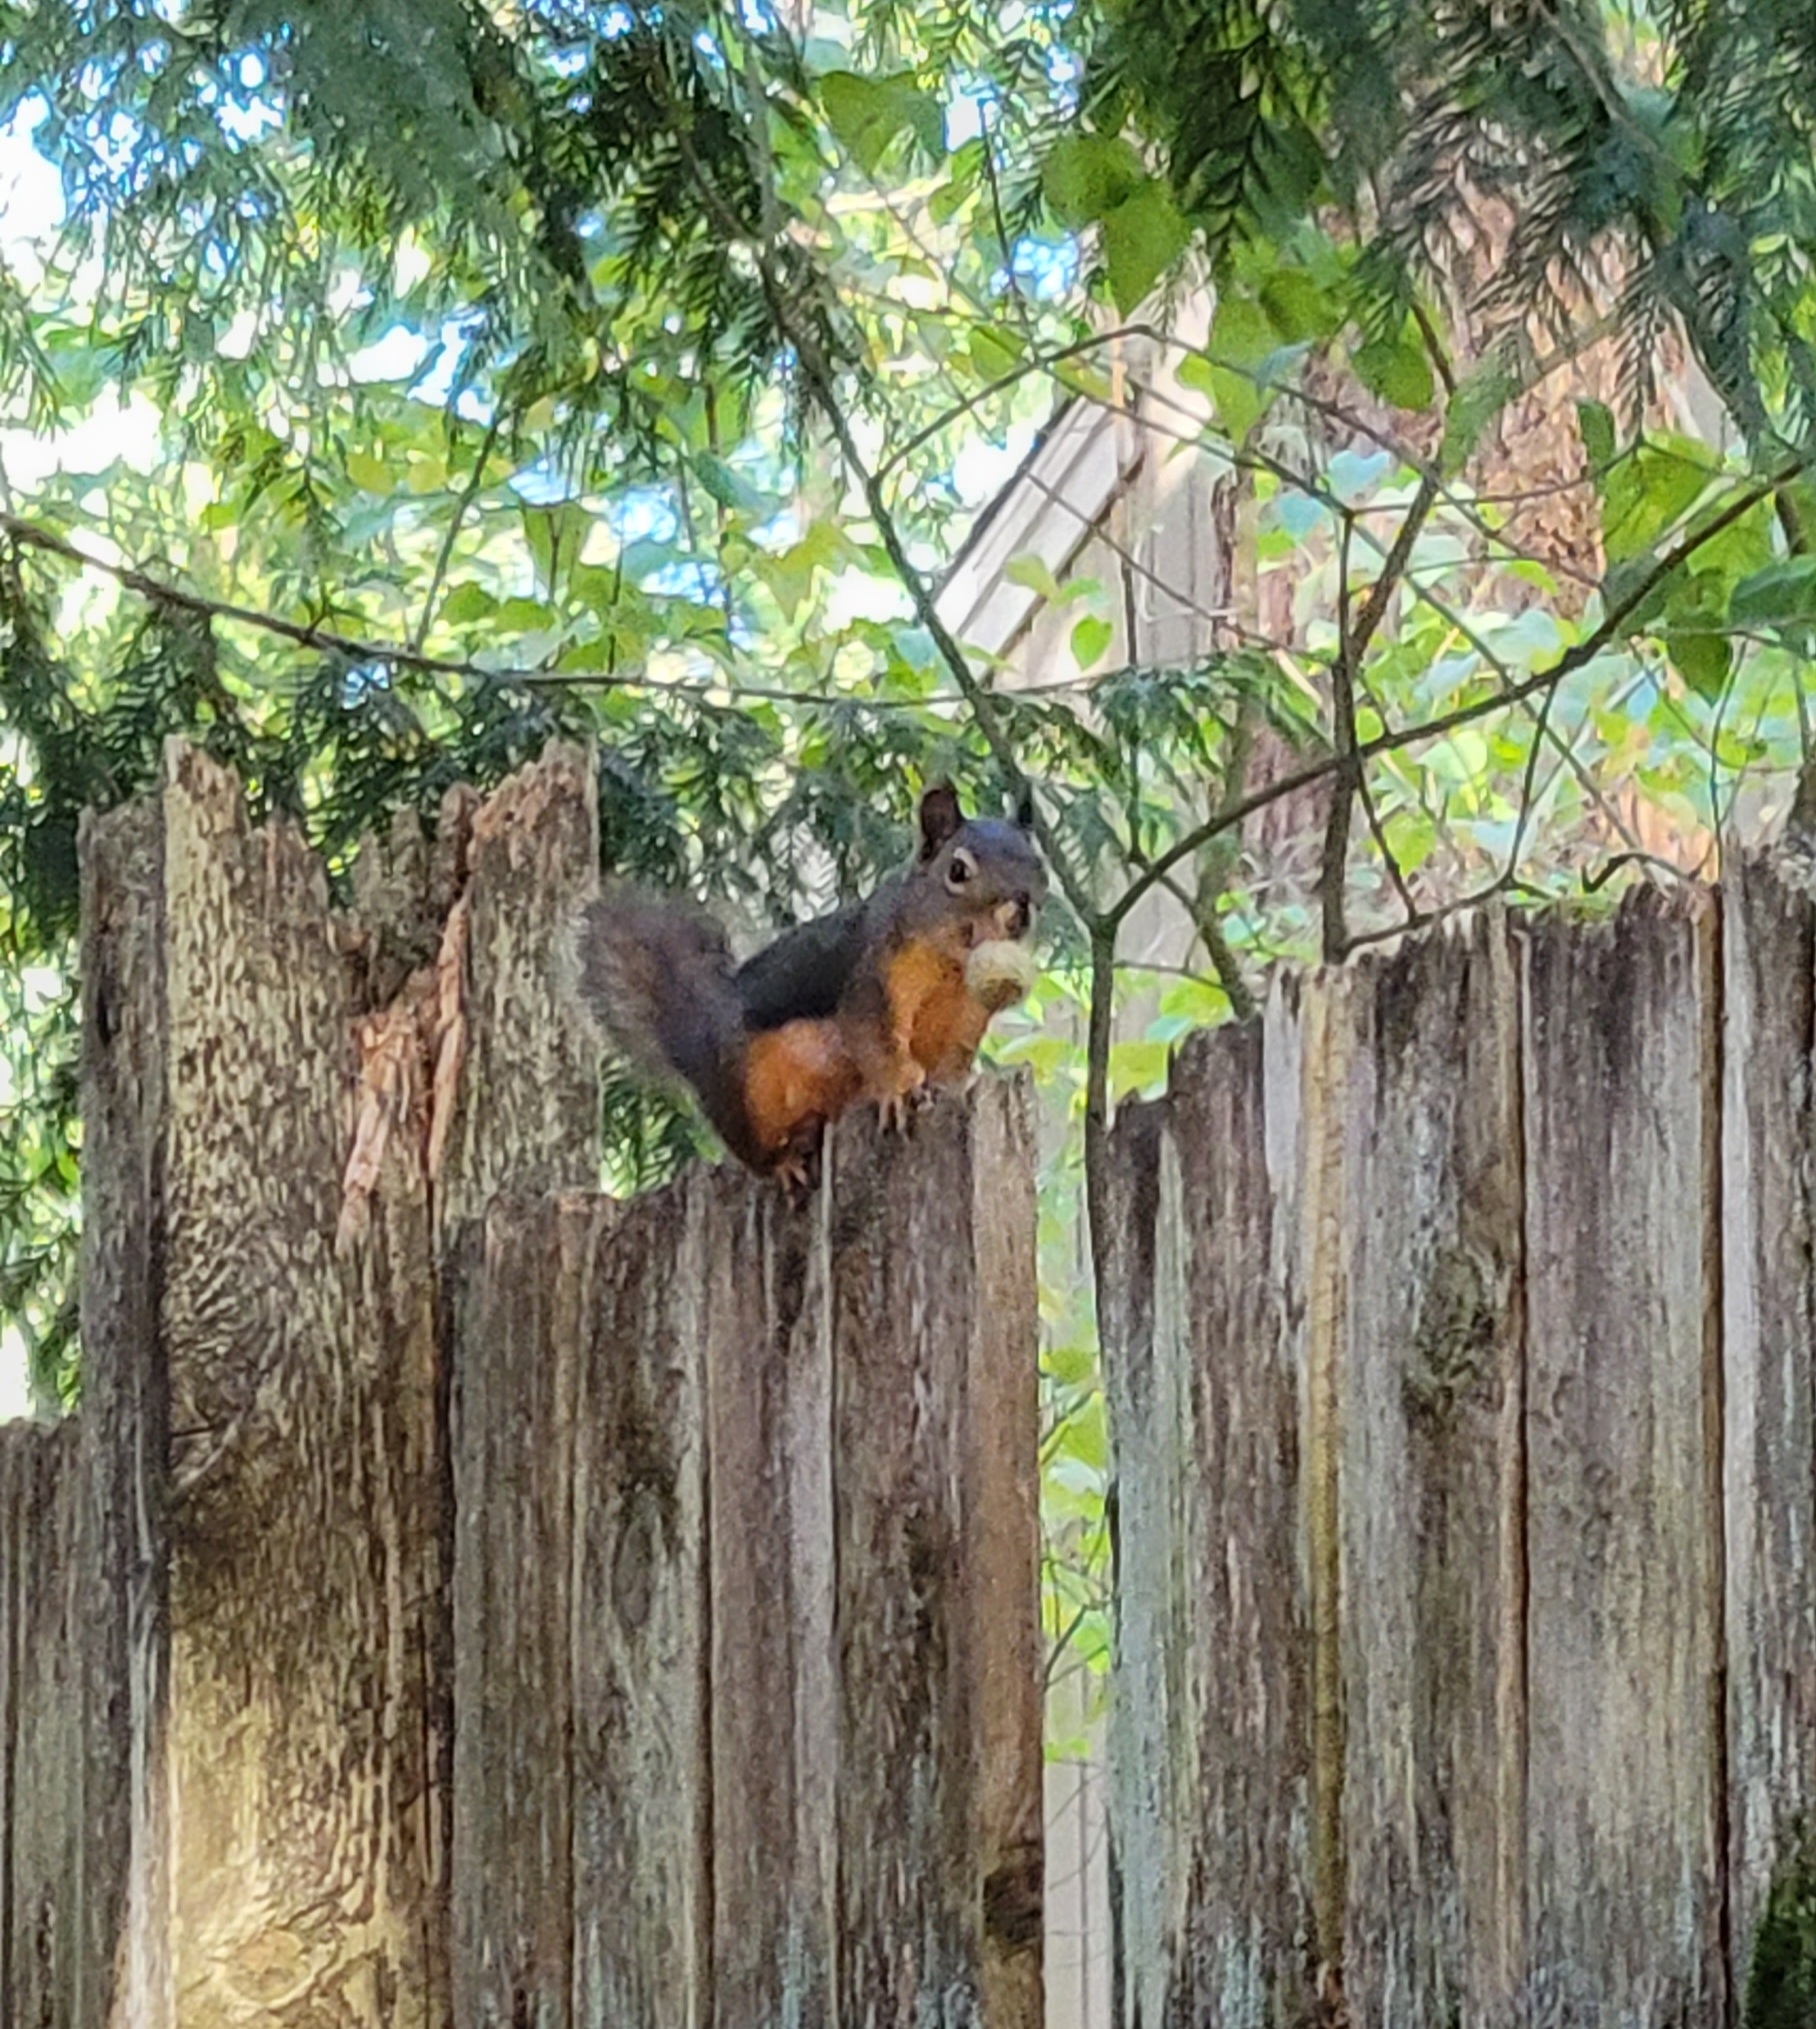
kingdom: Animalia
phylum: Chordata
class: Mammalia
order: Rodentia
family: Sciuridae
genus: Tamiasciurus
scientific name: Tamiasciurus douglasii
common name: Douglas's squirrel
